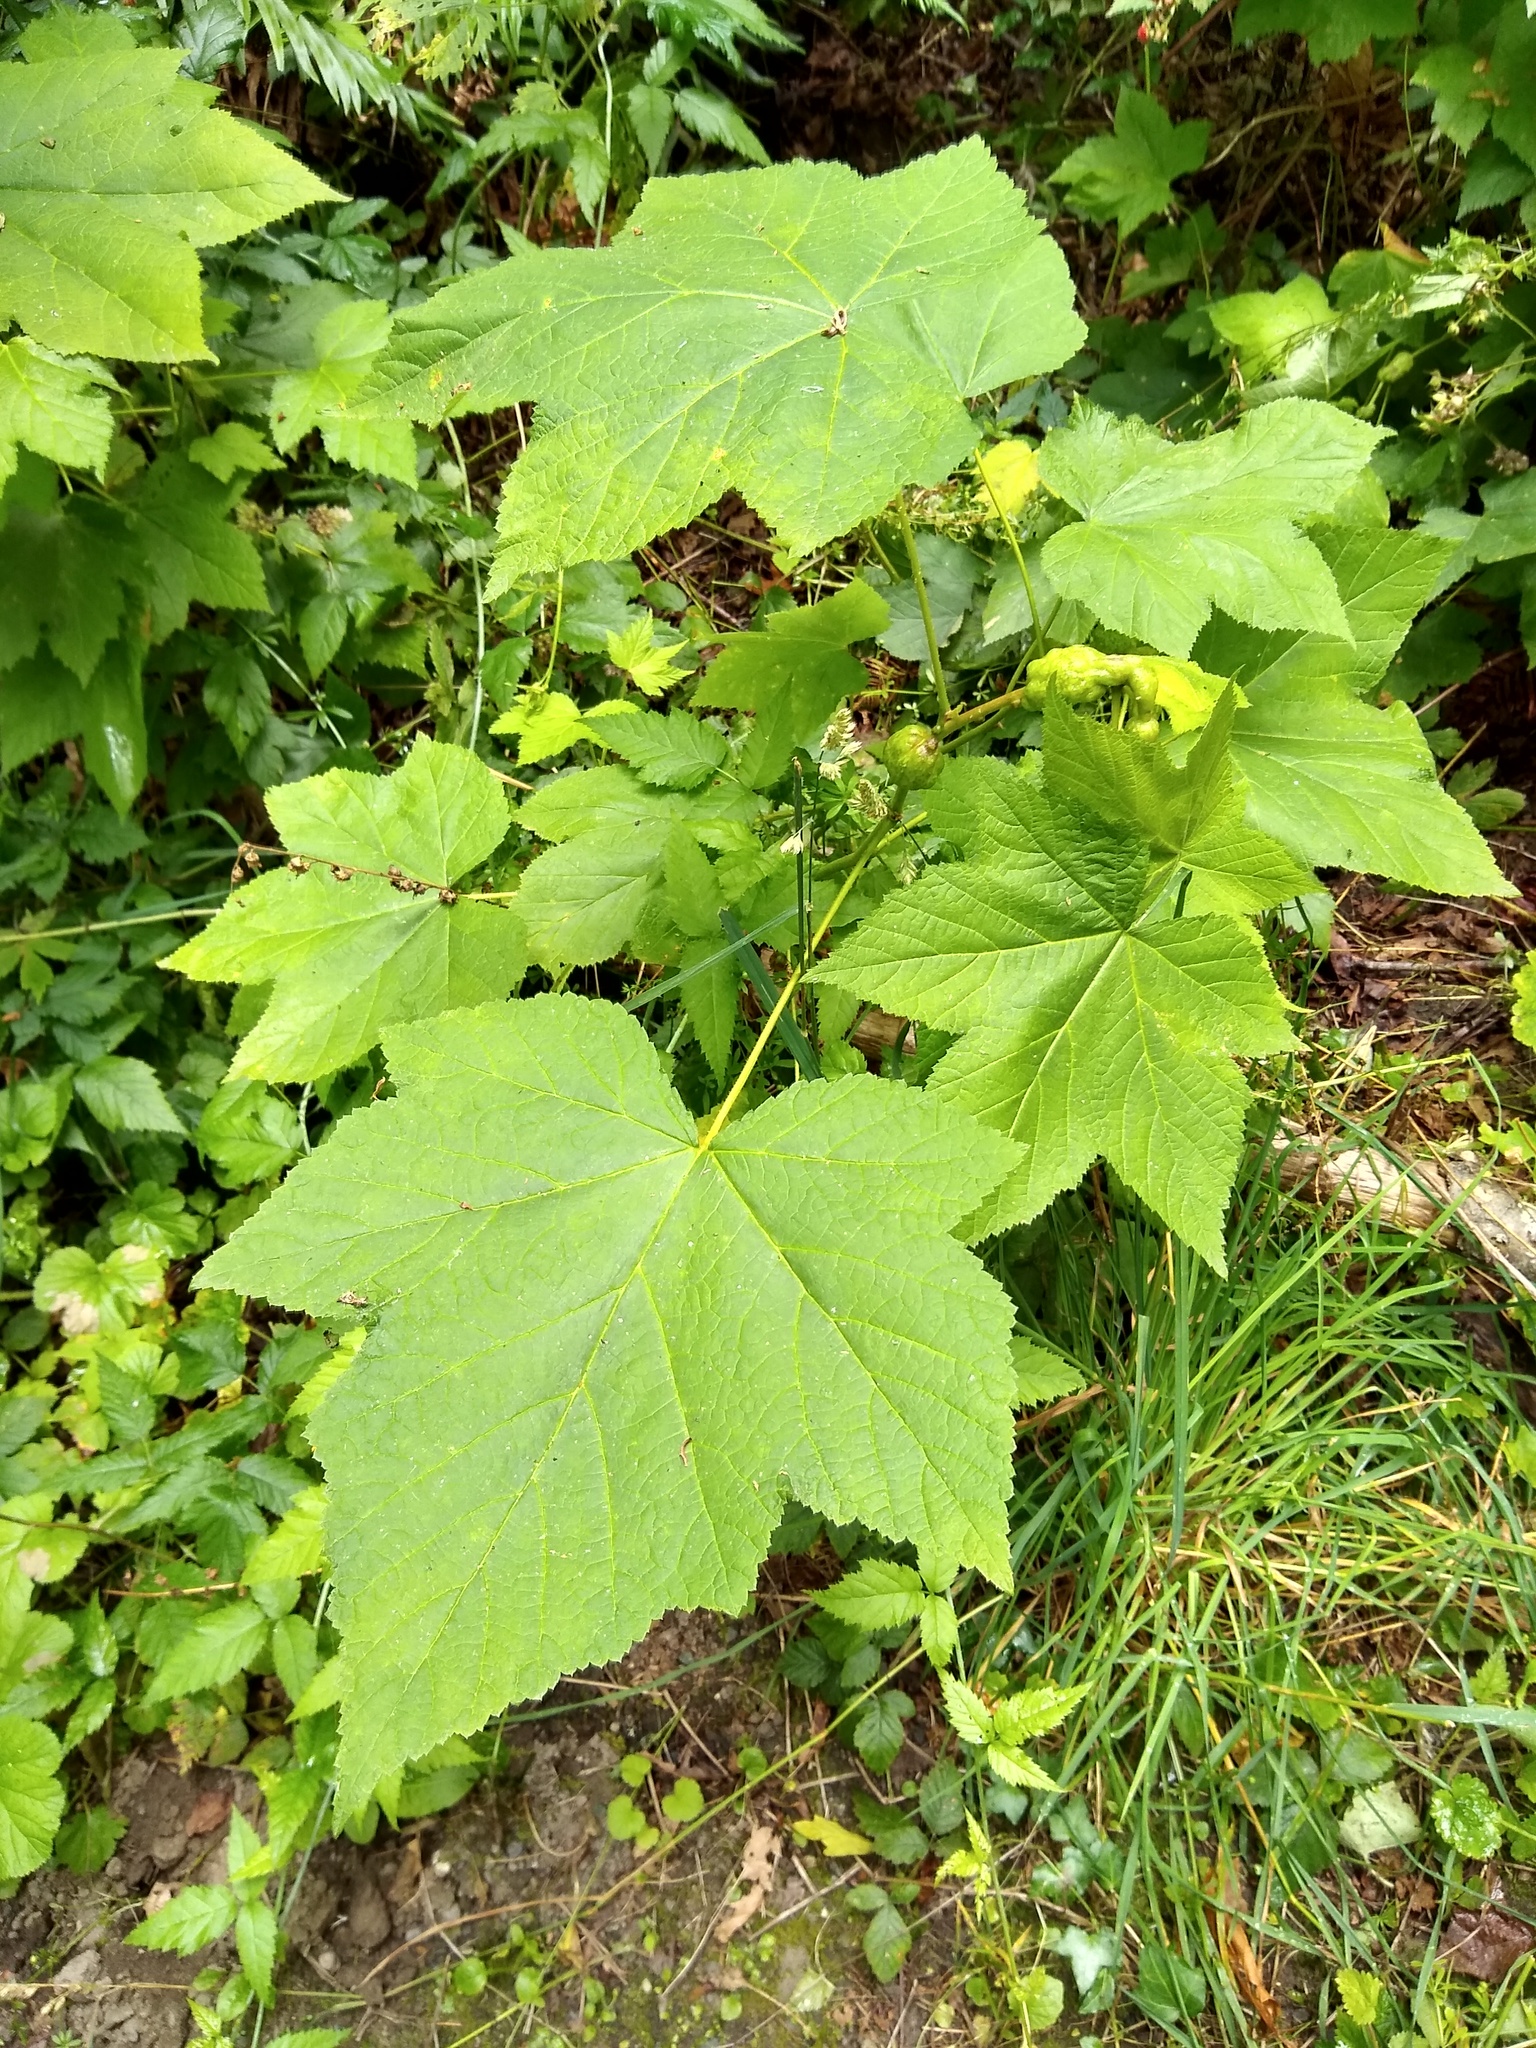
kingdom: Plantae
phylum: Tracheophyta
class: Magnoliopsida
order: Rosales
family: Rosaceae
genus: Rubus
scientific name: Rubus parviflorus
